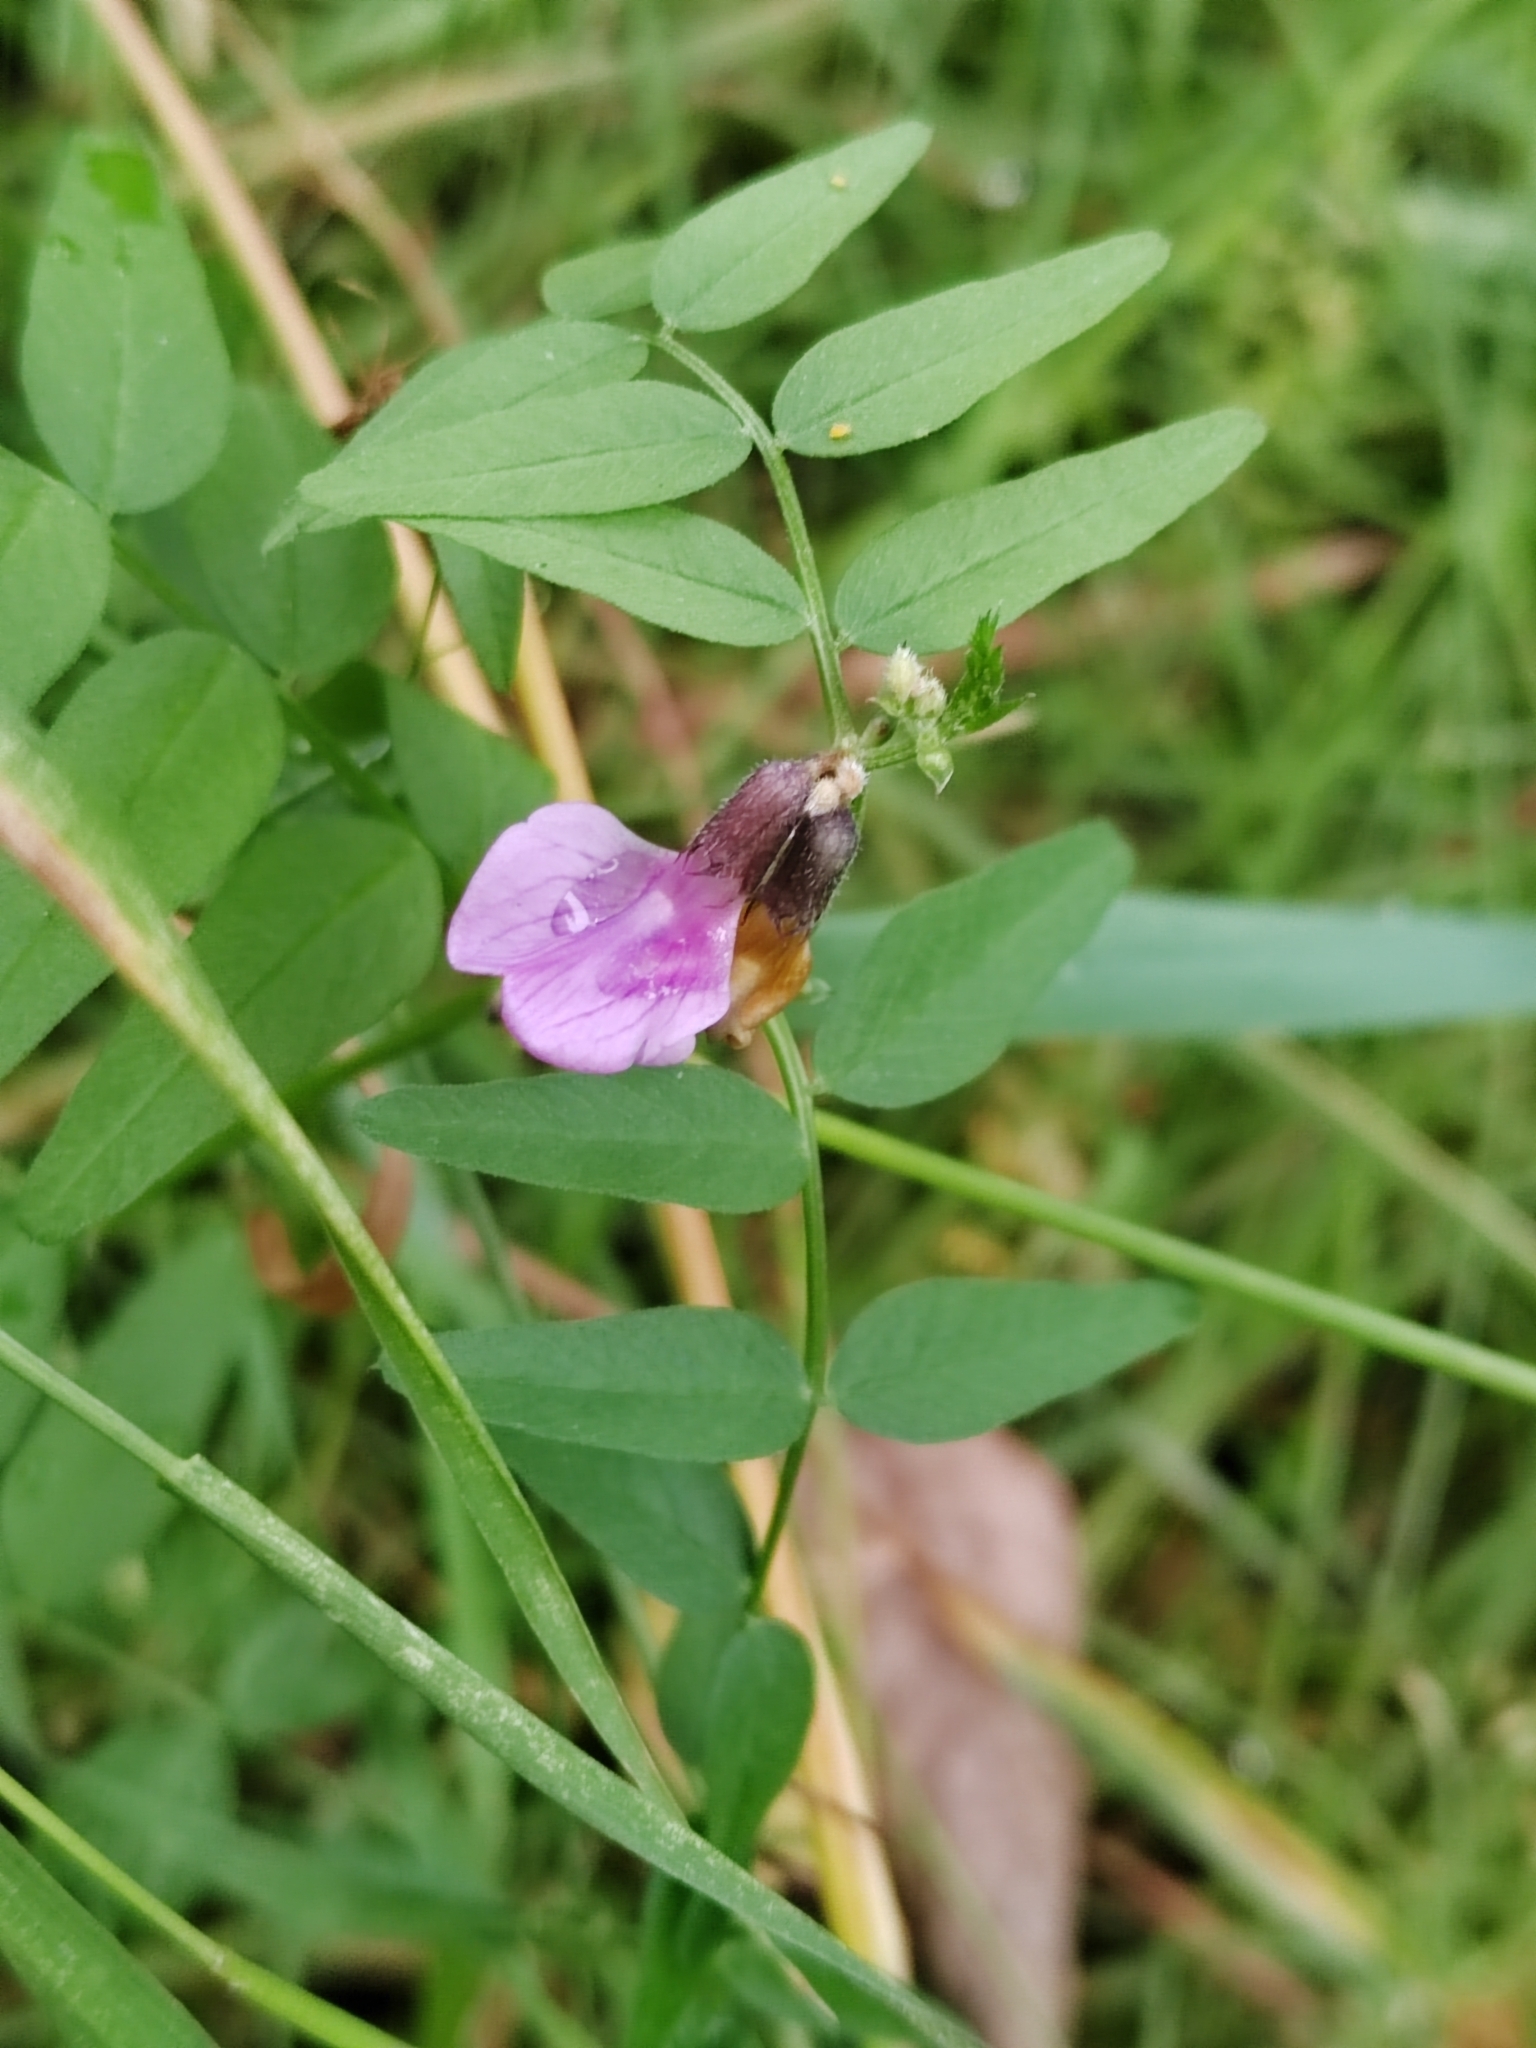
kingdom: Plantae
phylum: Tracheophyta
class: Magnoliopsida
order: Fabales
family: Fabaceae
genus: Vicia
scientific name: Vicia sepium
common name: Bush vetch
